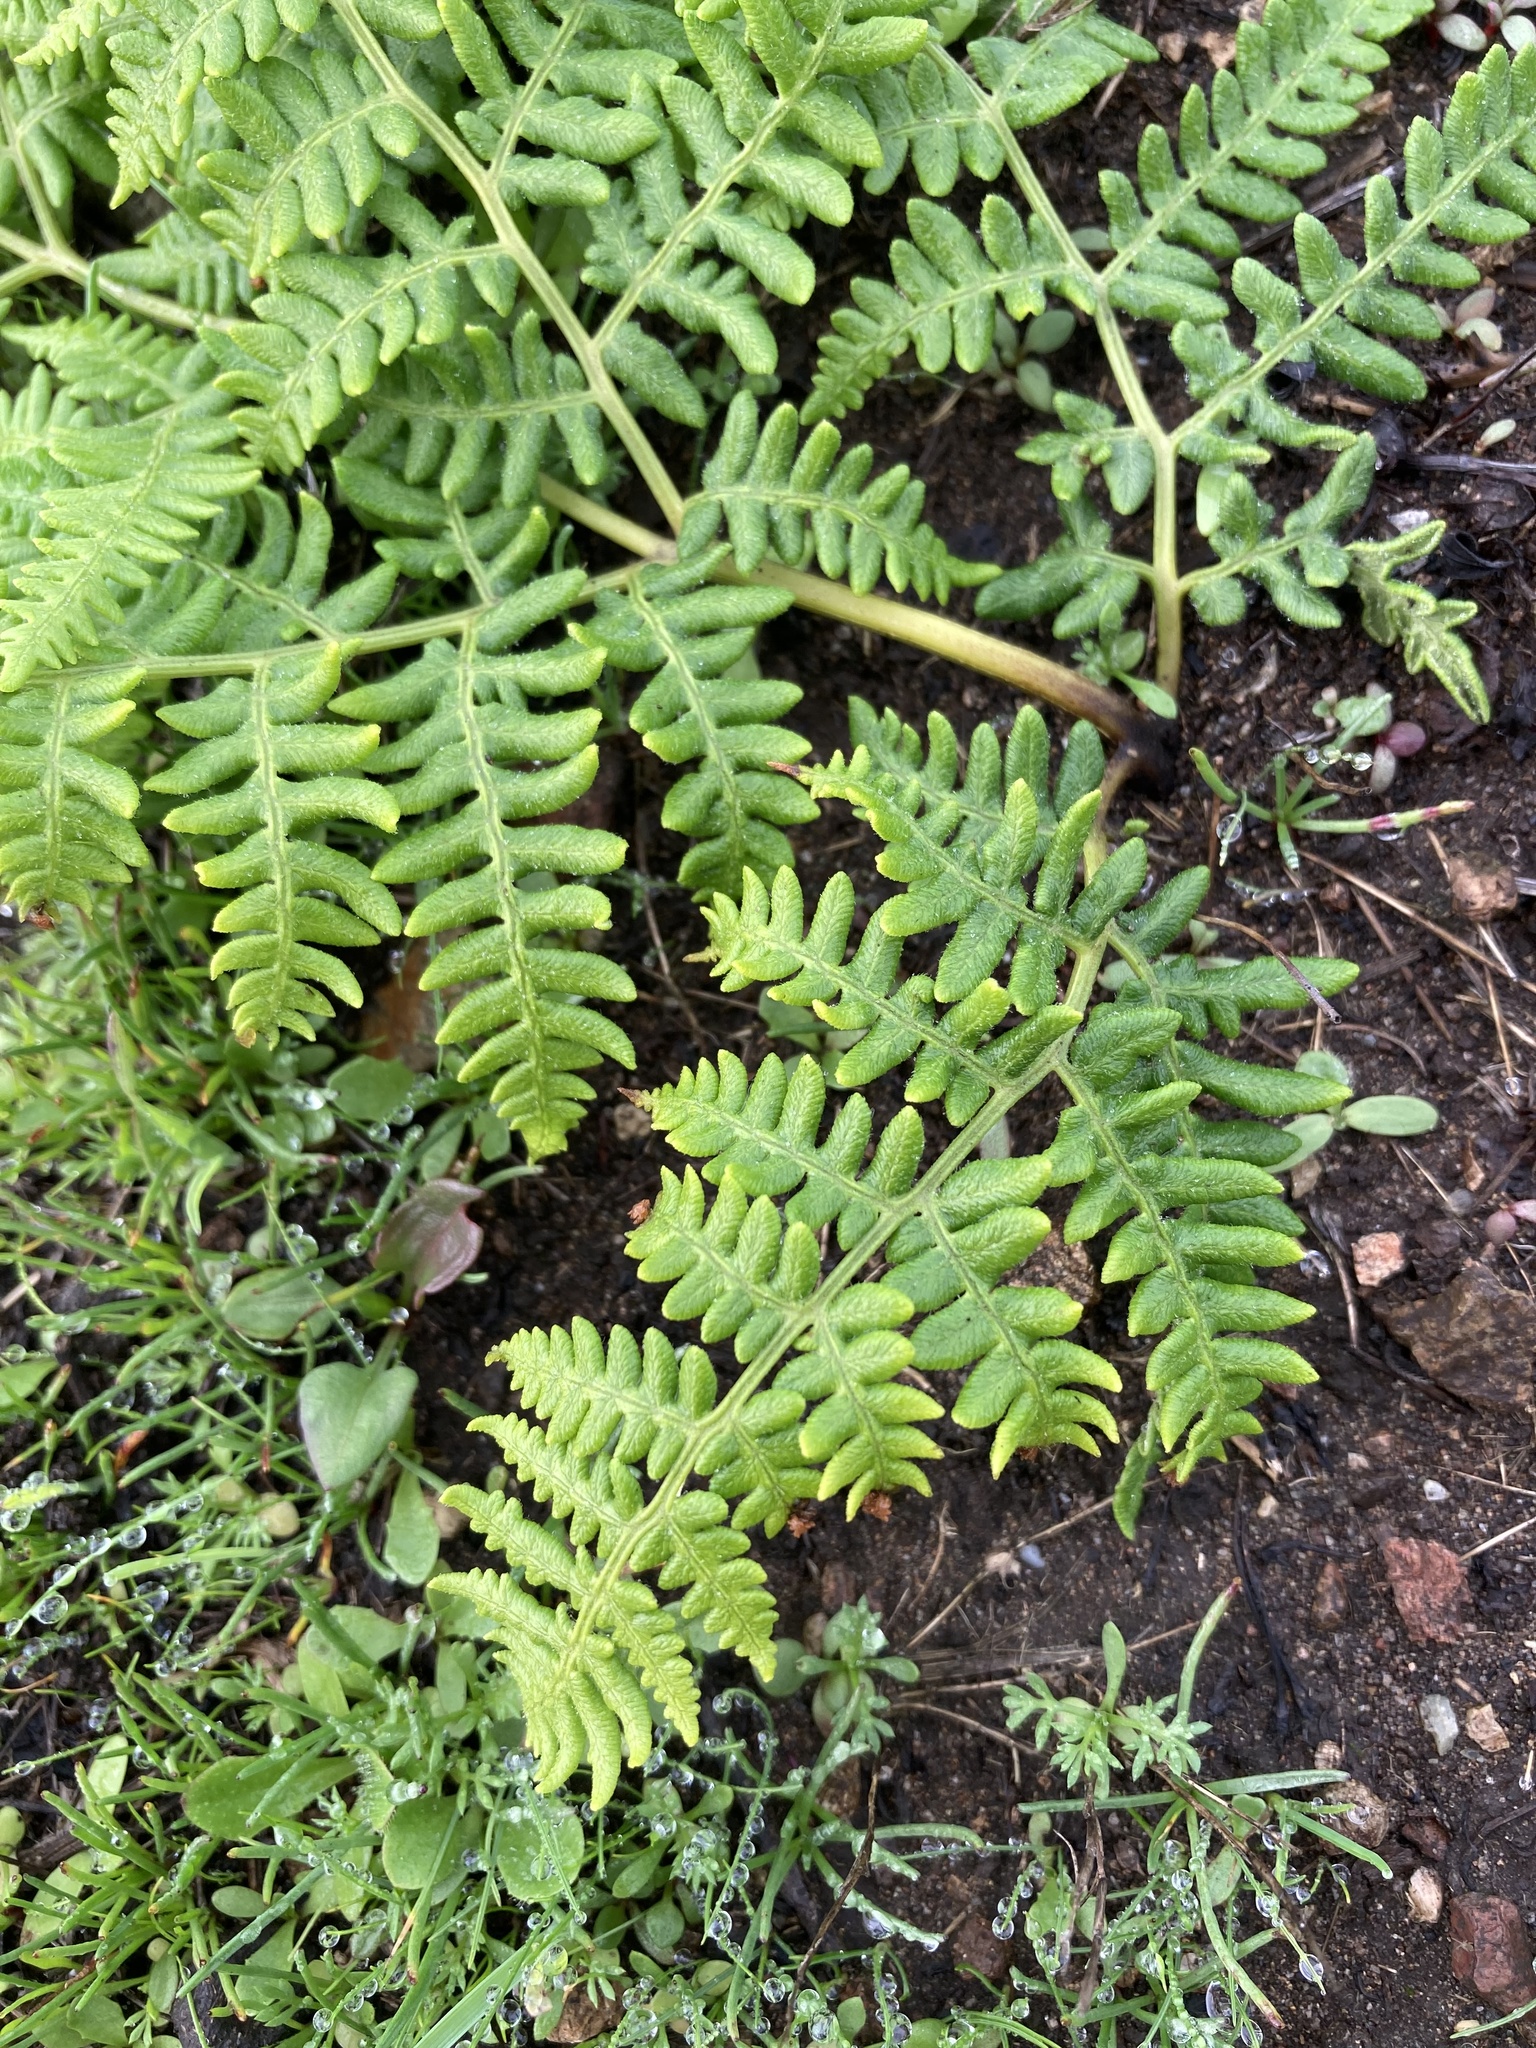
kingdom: Plantae
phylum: Tracheophyta
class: Polypodiopsida
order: Polypodiales
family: Dennstaedtiaceae
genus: Pteridium
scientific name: Pteridium aquilinum
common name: Bracken
